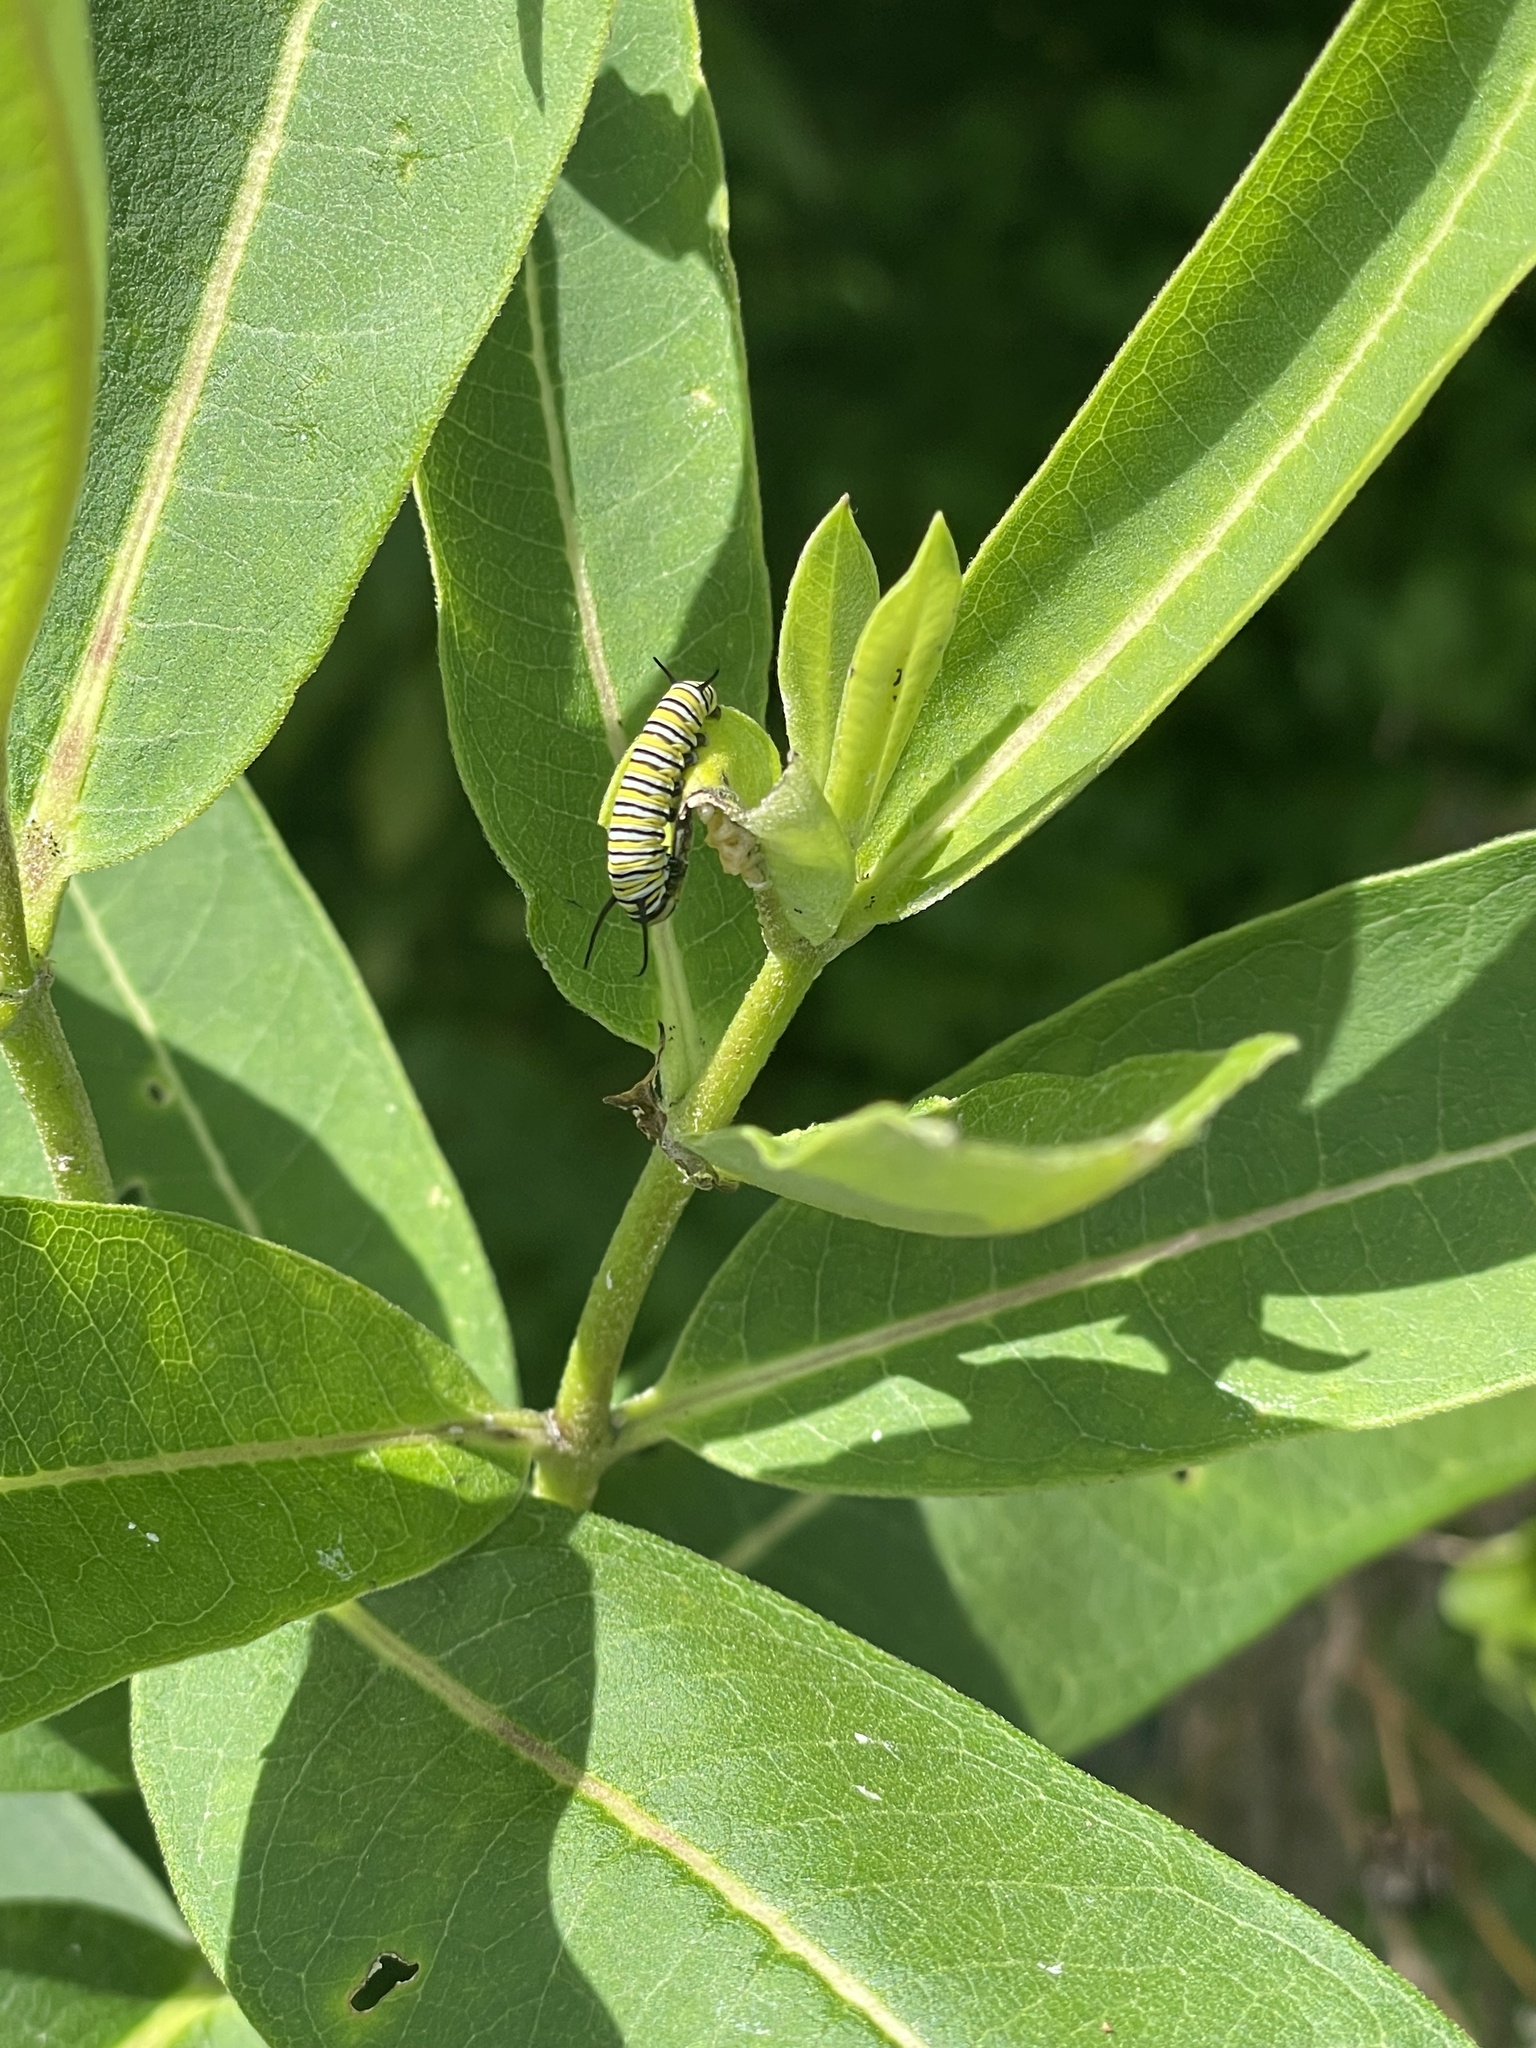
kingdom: Animalia
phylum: Arthropoda
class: Insecta
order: Lepidoptera
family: Nymphalidae
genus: Danaus
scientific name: Danaus plexippus
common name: Monarch
